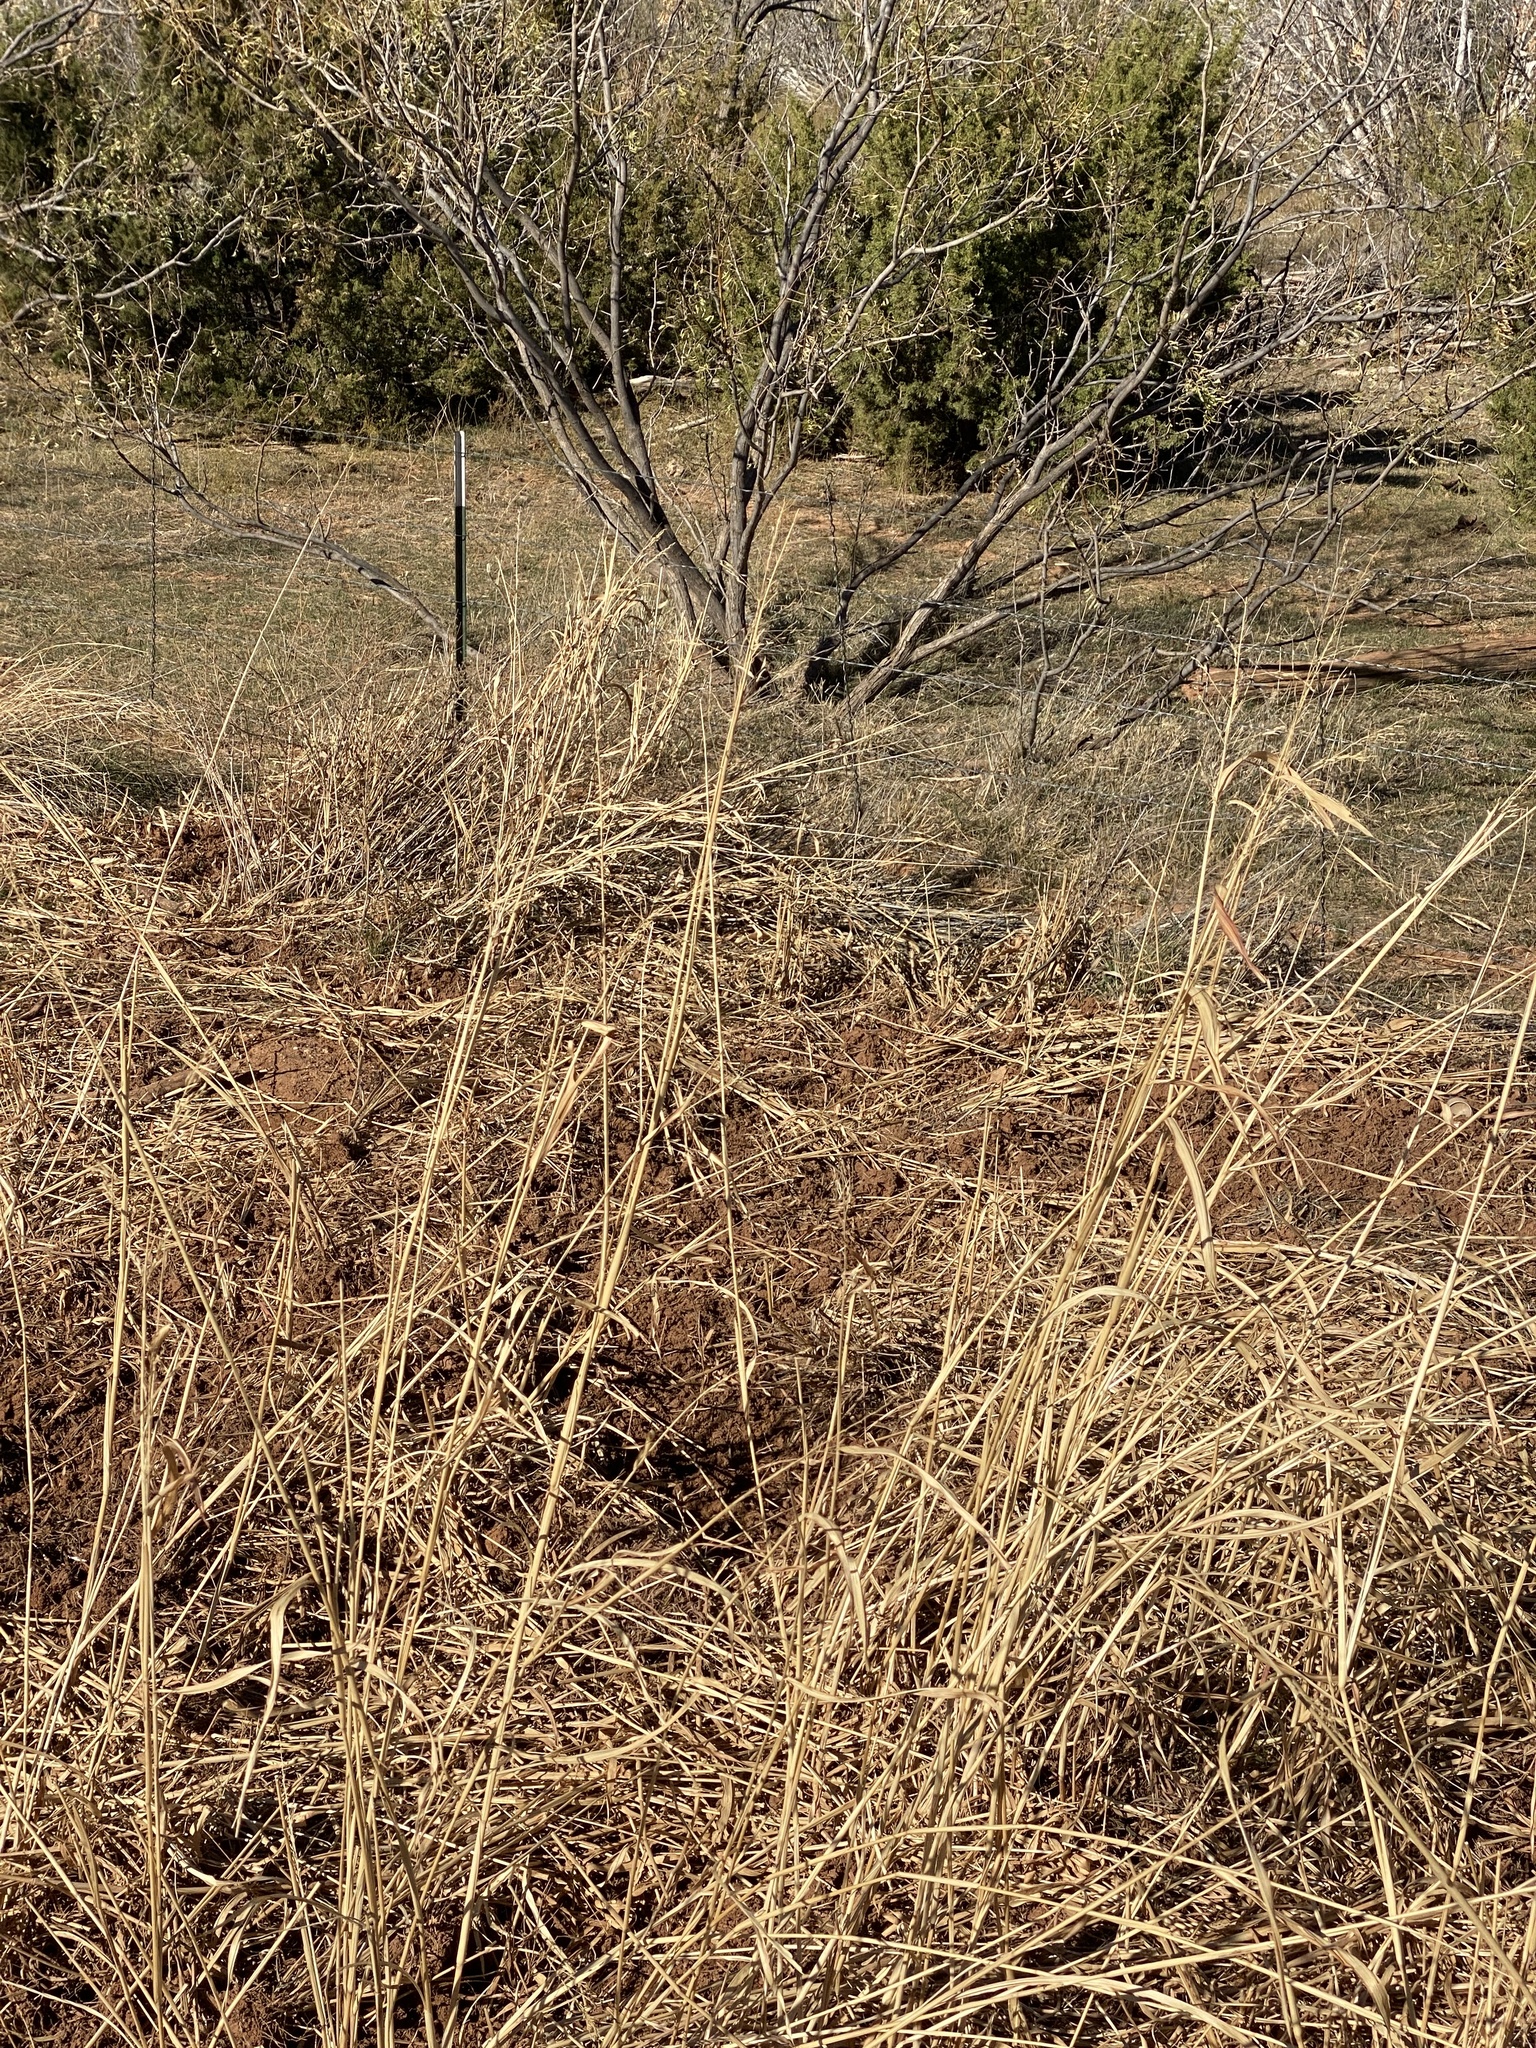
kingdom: Plantae
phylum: Tracheophyta
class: Liliopsida
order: Poales
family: Poaceae
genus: Sorghum
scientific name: Sorghum halepense
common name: Johnson-grass
